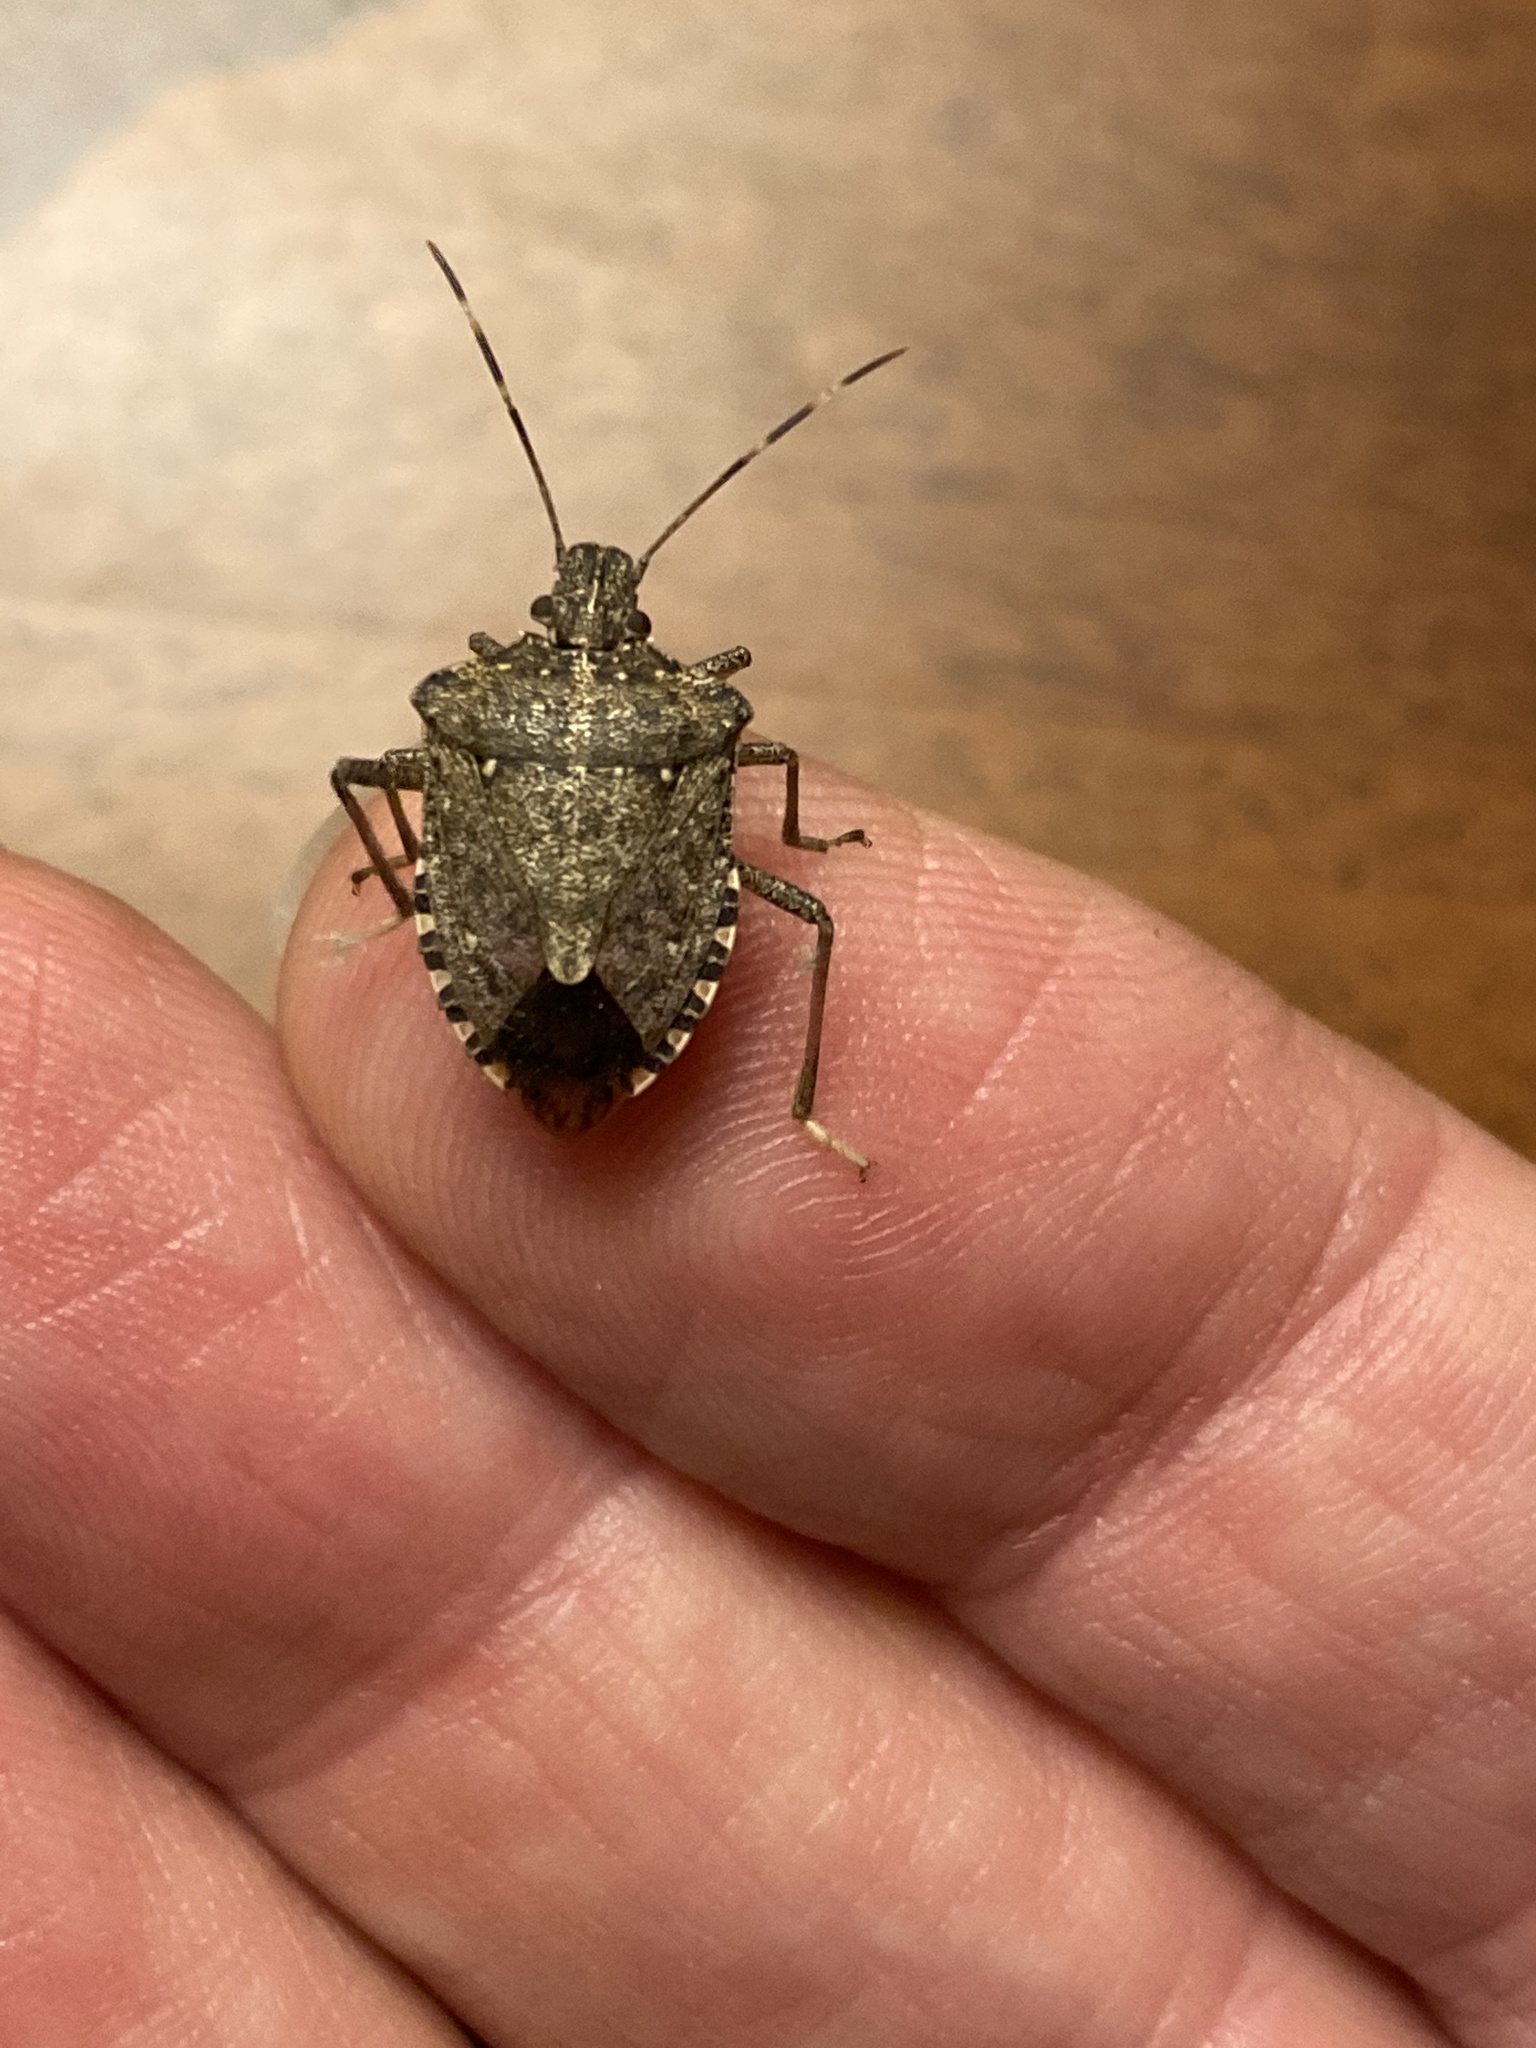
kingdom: Animalia
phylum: Arthropoda
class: Insecta
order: Hemiptera
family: Pentatomidae
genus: Halyomorpha
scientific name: Halyomorpha halys
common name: Brown marmorated stink bug
